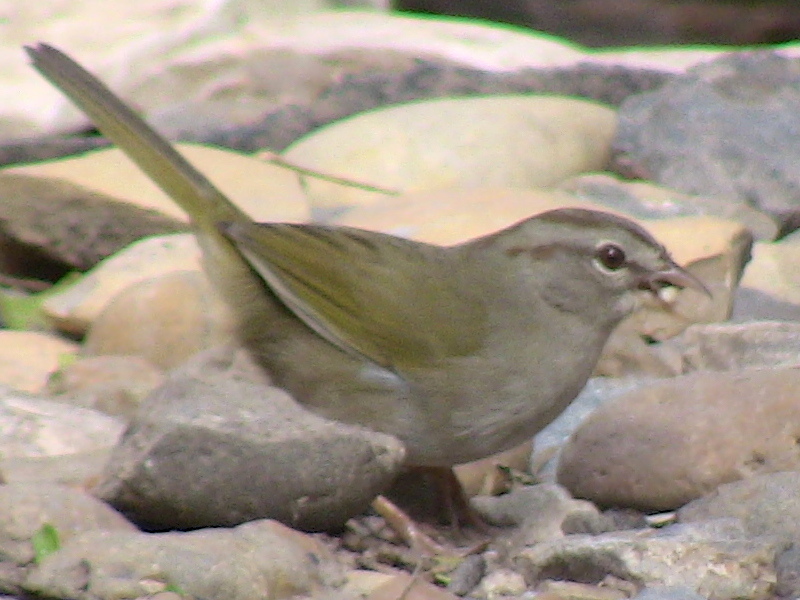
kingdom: Animalia
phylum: Chordata
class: Aves
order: Passeriformes
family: Passerellidae
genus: Arremonops
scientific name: Arremonops rufivirgatus
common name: Olive sparrow
